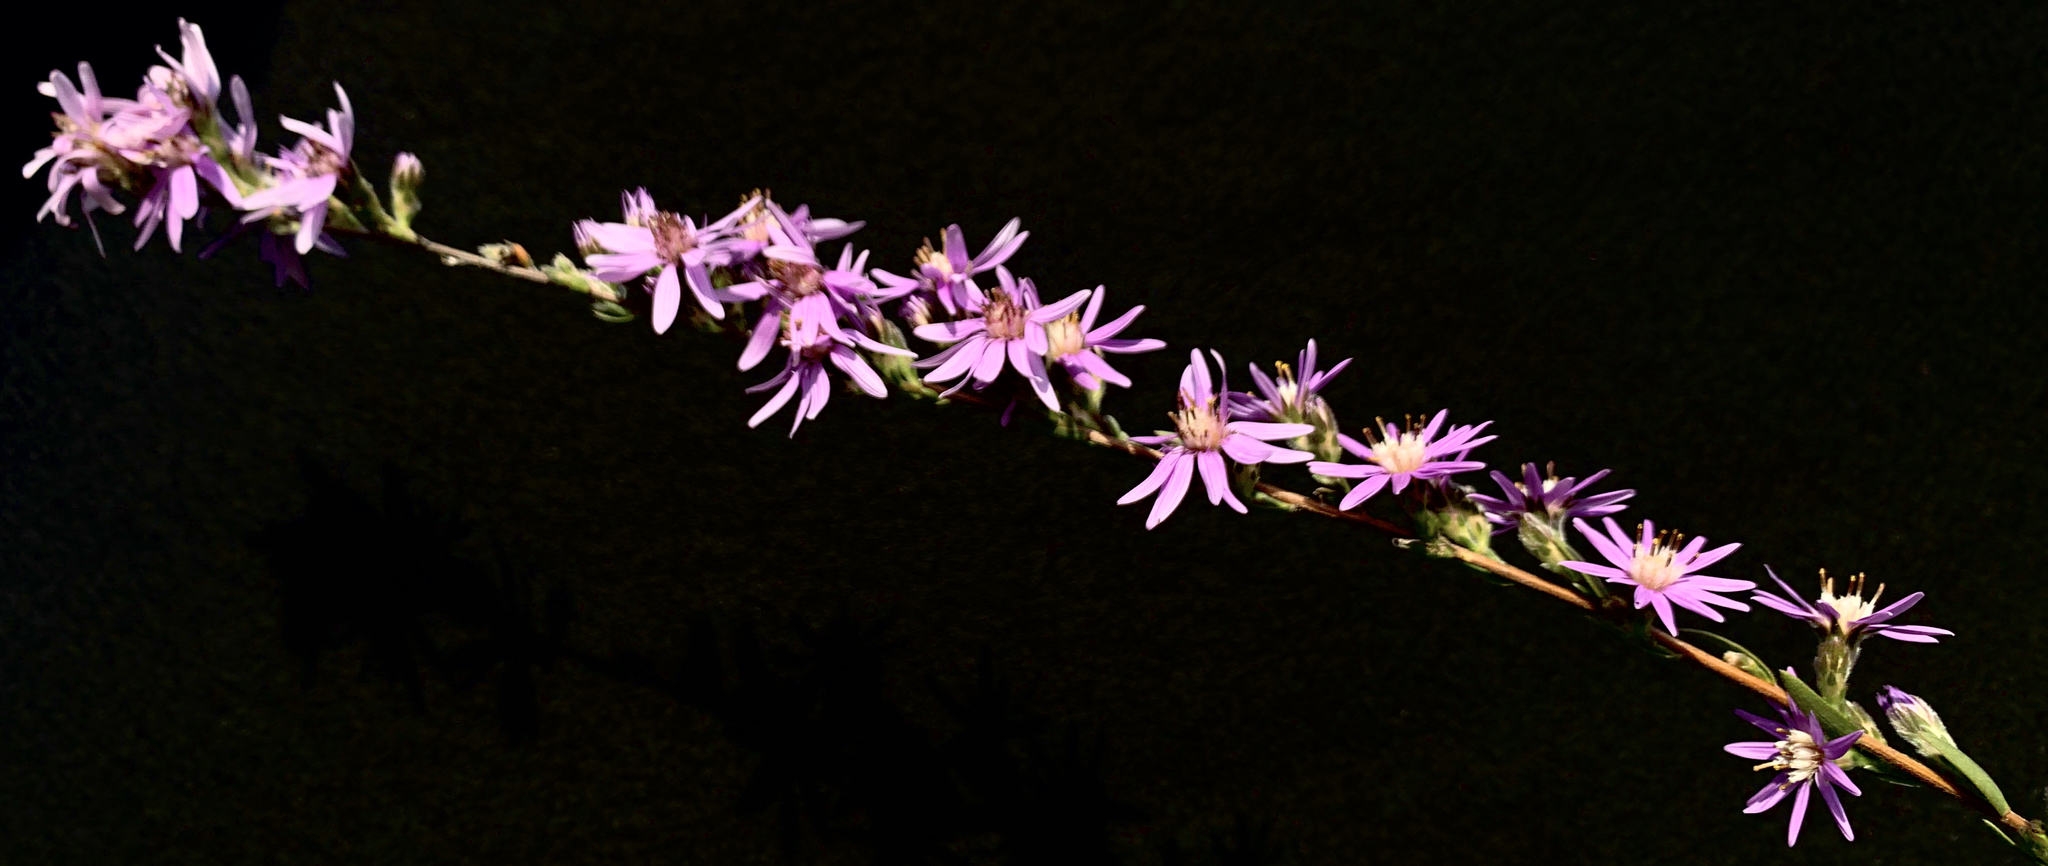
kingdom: Plantae
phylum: Tracheophyta
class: Magnoliopsida
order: Asterales
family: Asteraceae
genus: Symphyotrichum
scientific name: Symphyotrichum concolor
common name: Eastern silver aster
